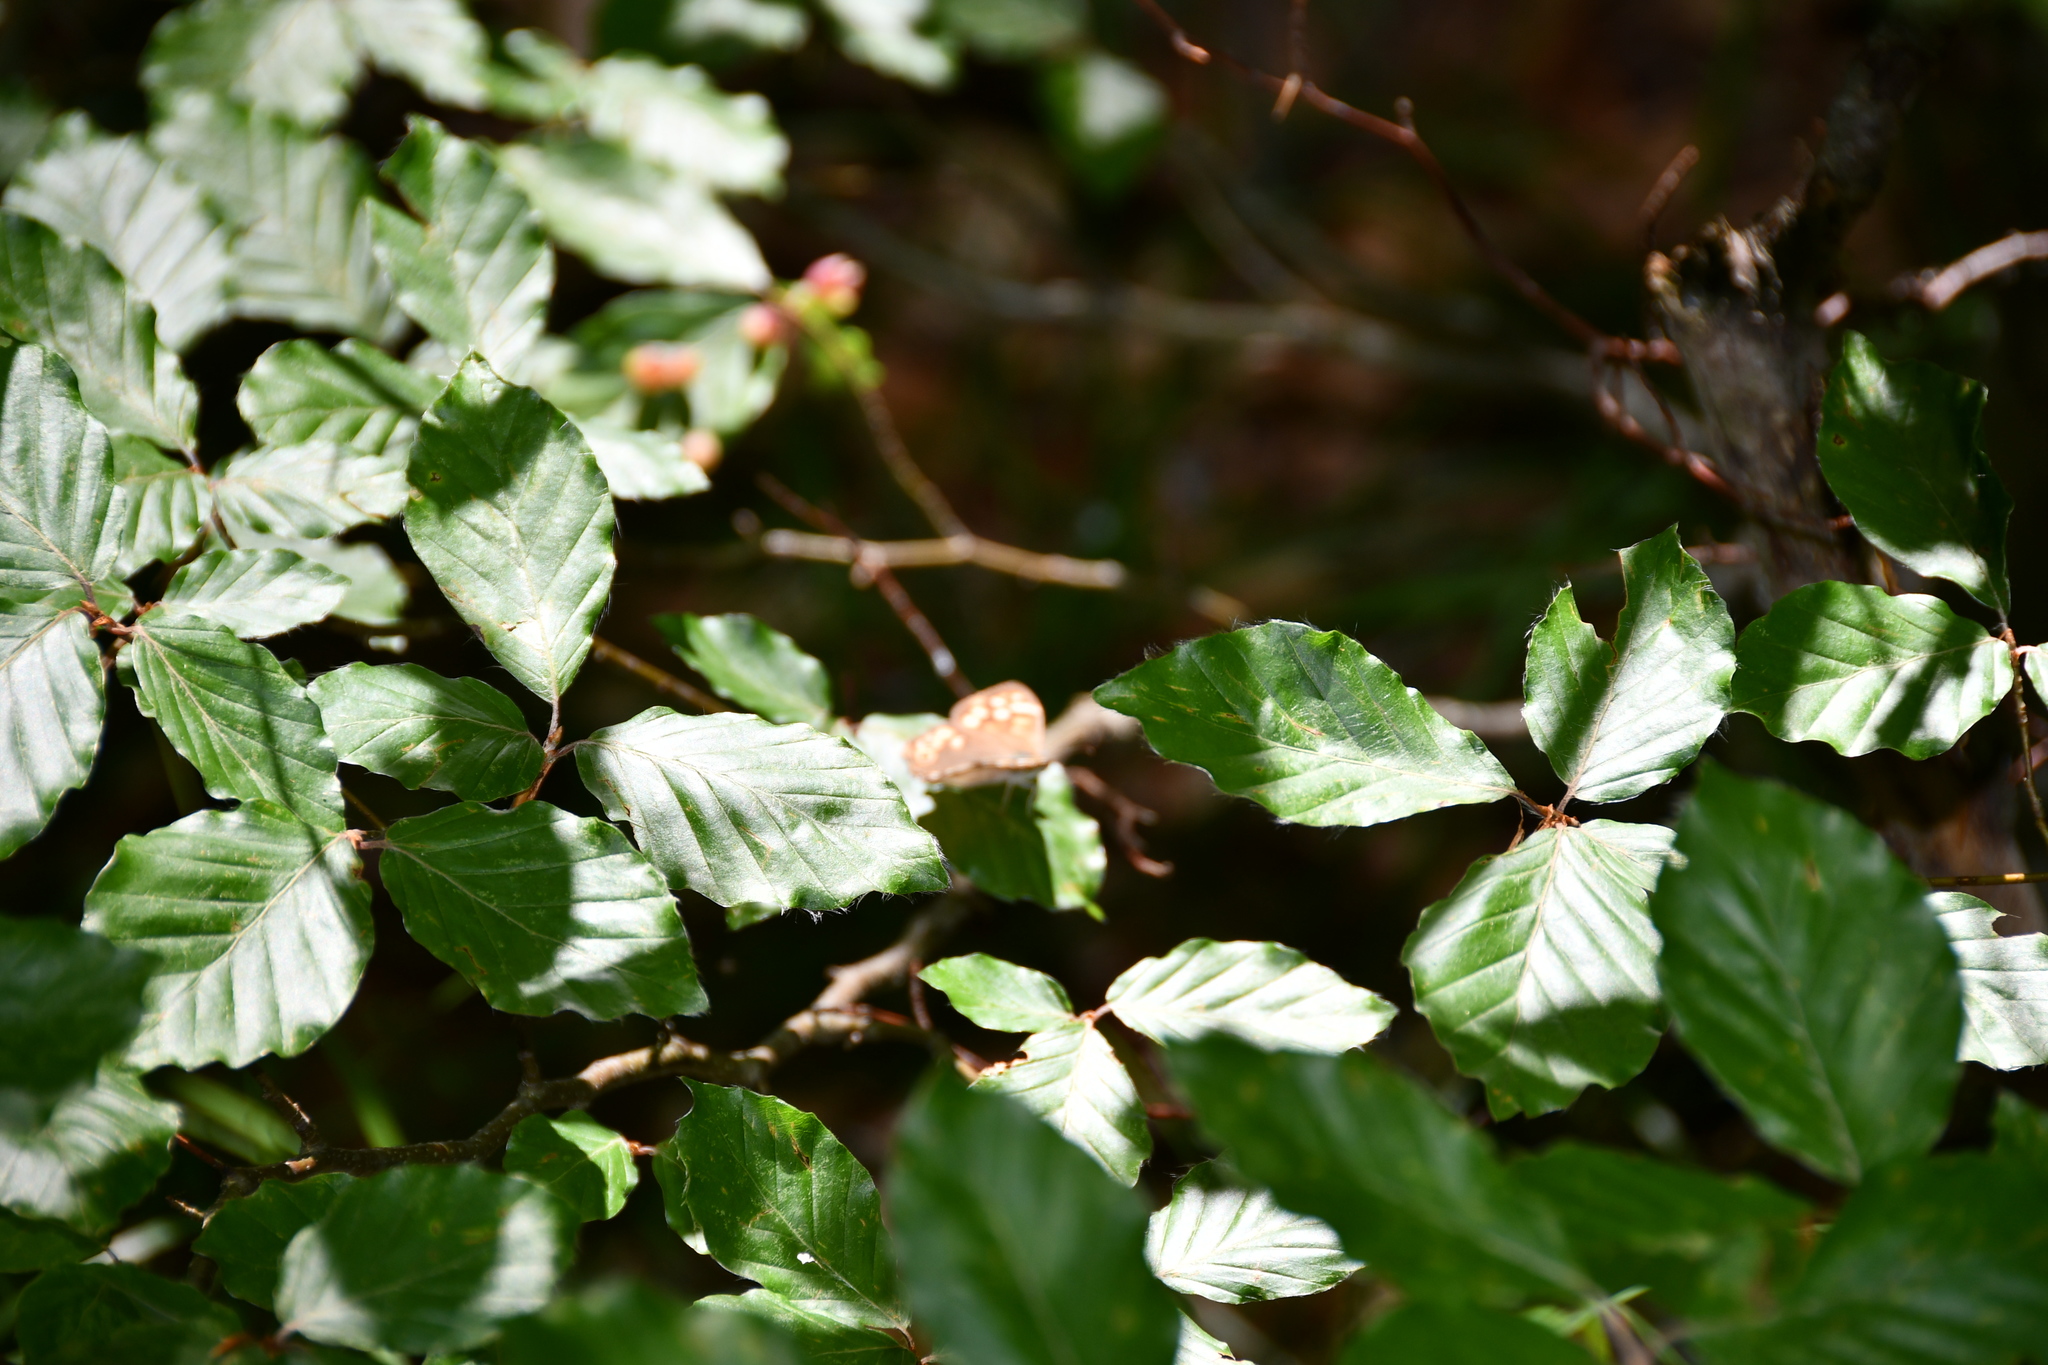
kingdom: Animalia
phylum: Arthropoda
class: Insecta
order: Lepidoptera
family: Nymphalidae
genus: Pararge
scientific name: Pararge aegeria
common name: Speckled wood
